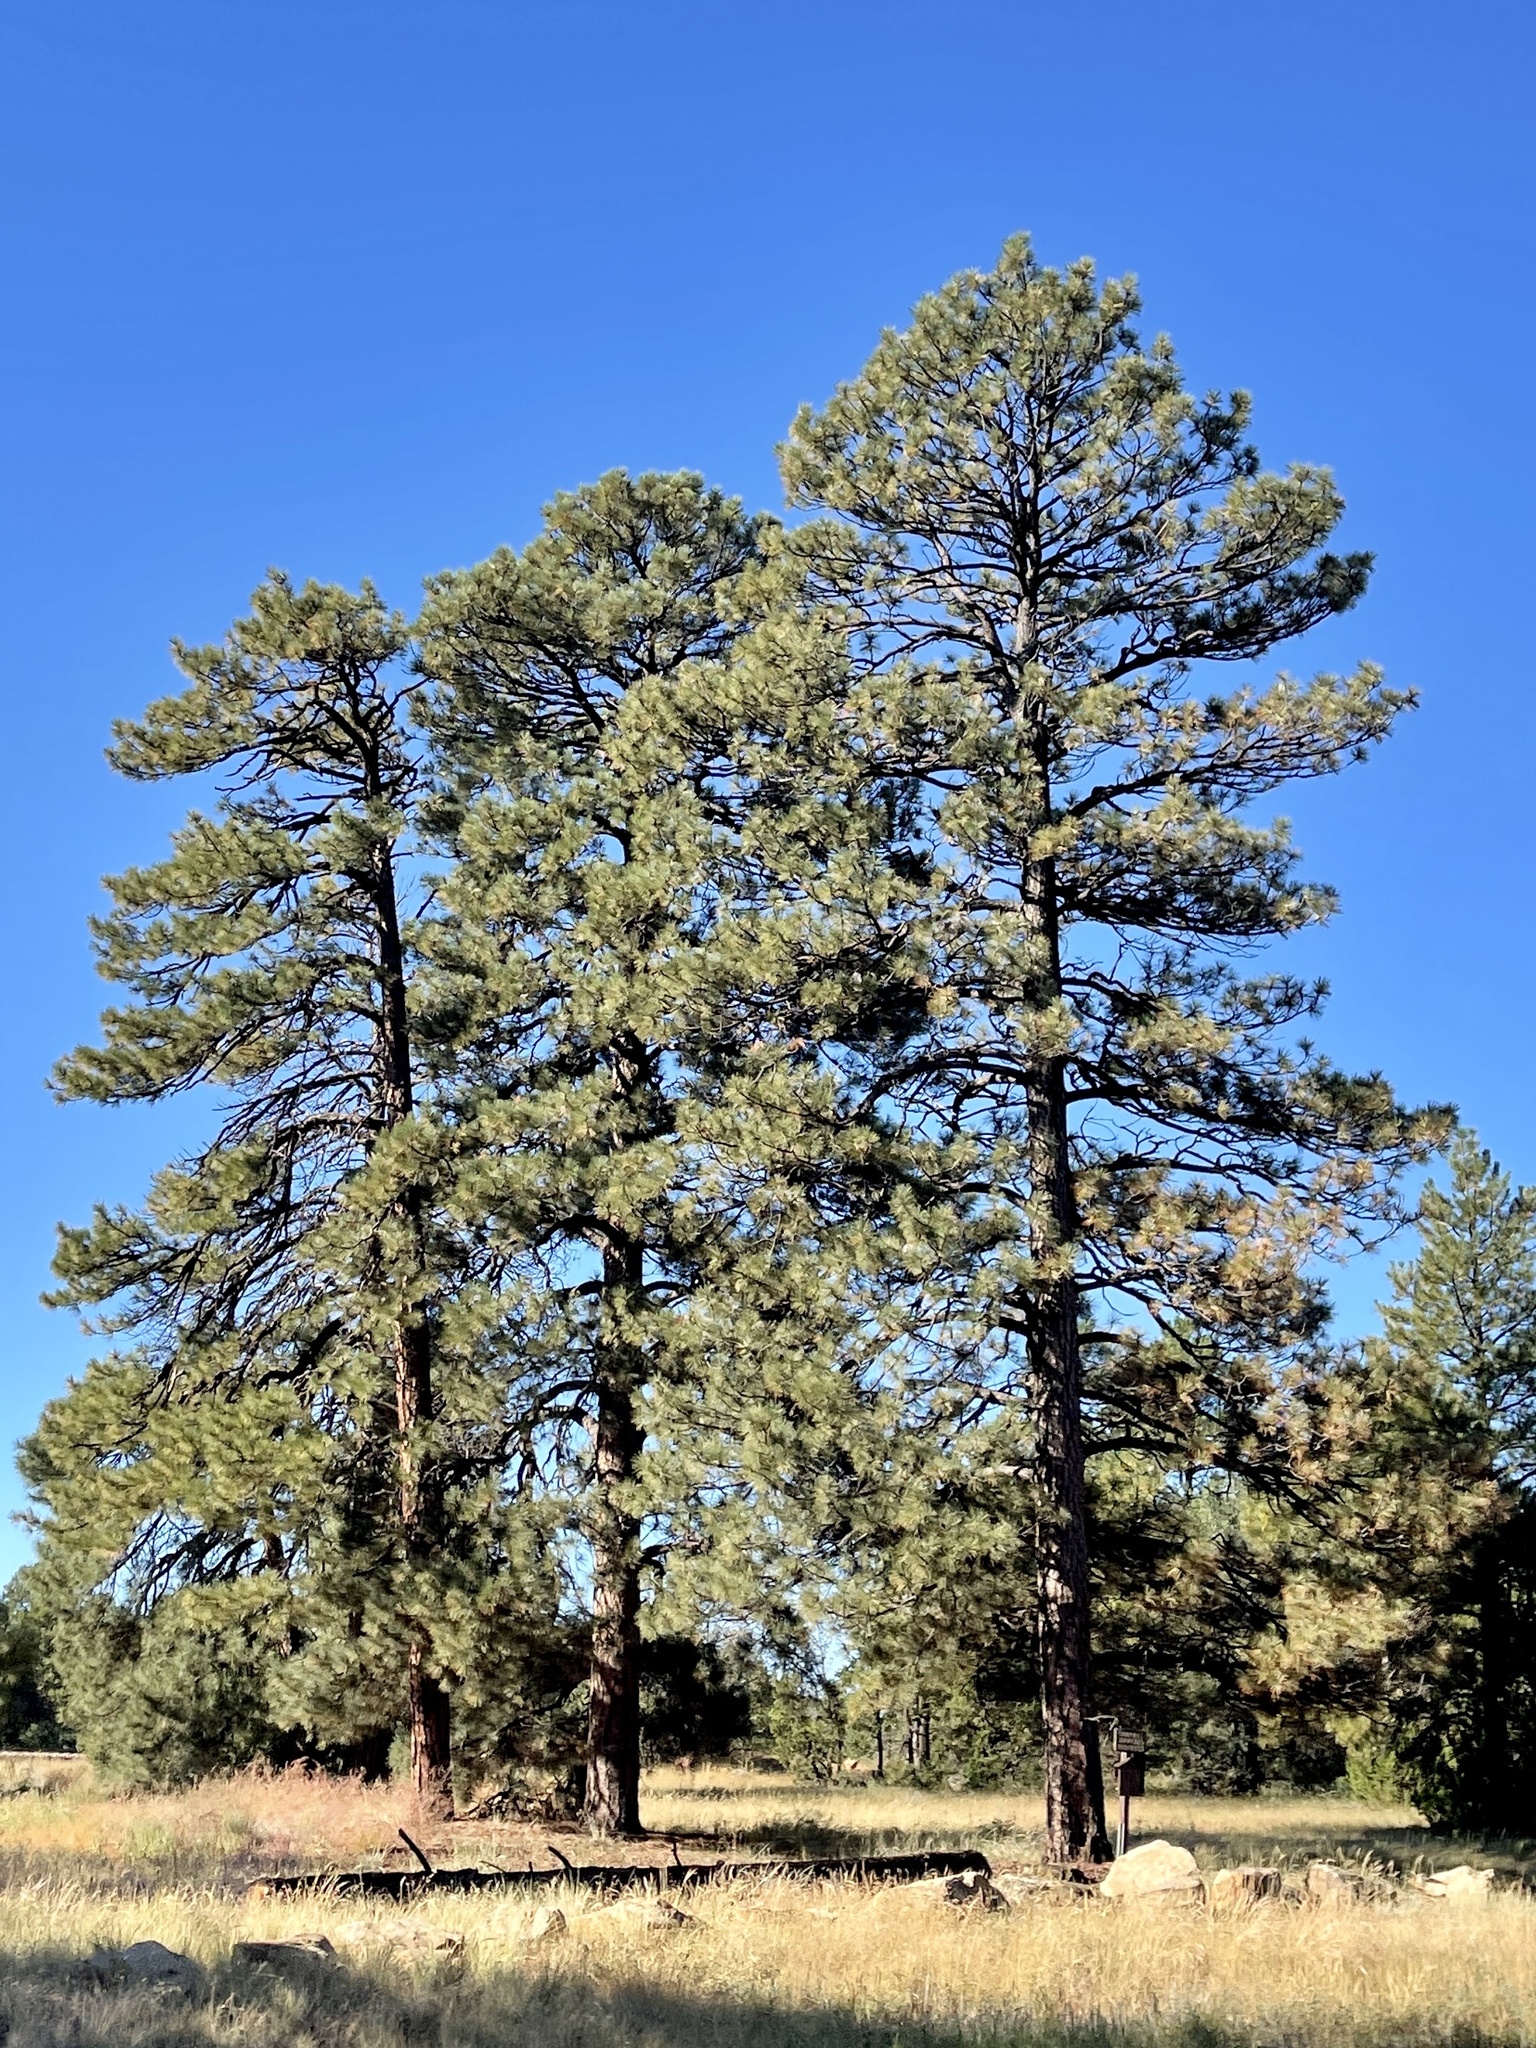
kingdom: Plantae
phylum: Tracheophyta
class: Pinopsida
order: Pinales
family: Pinaceae
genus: Pinus
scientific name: Pinus ponderosa
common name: Western yellow-pine
